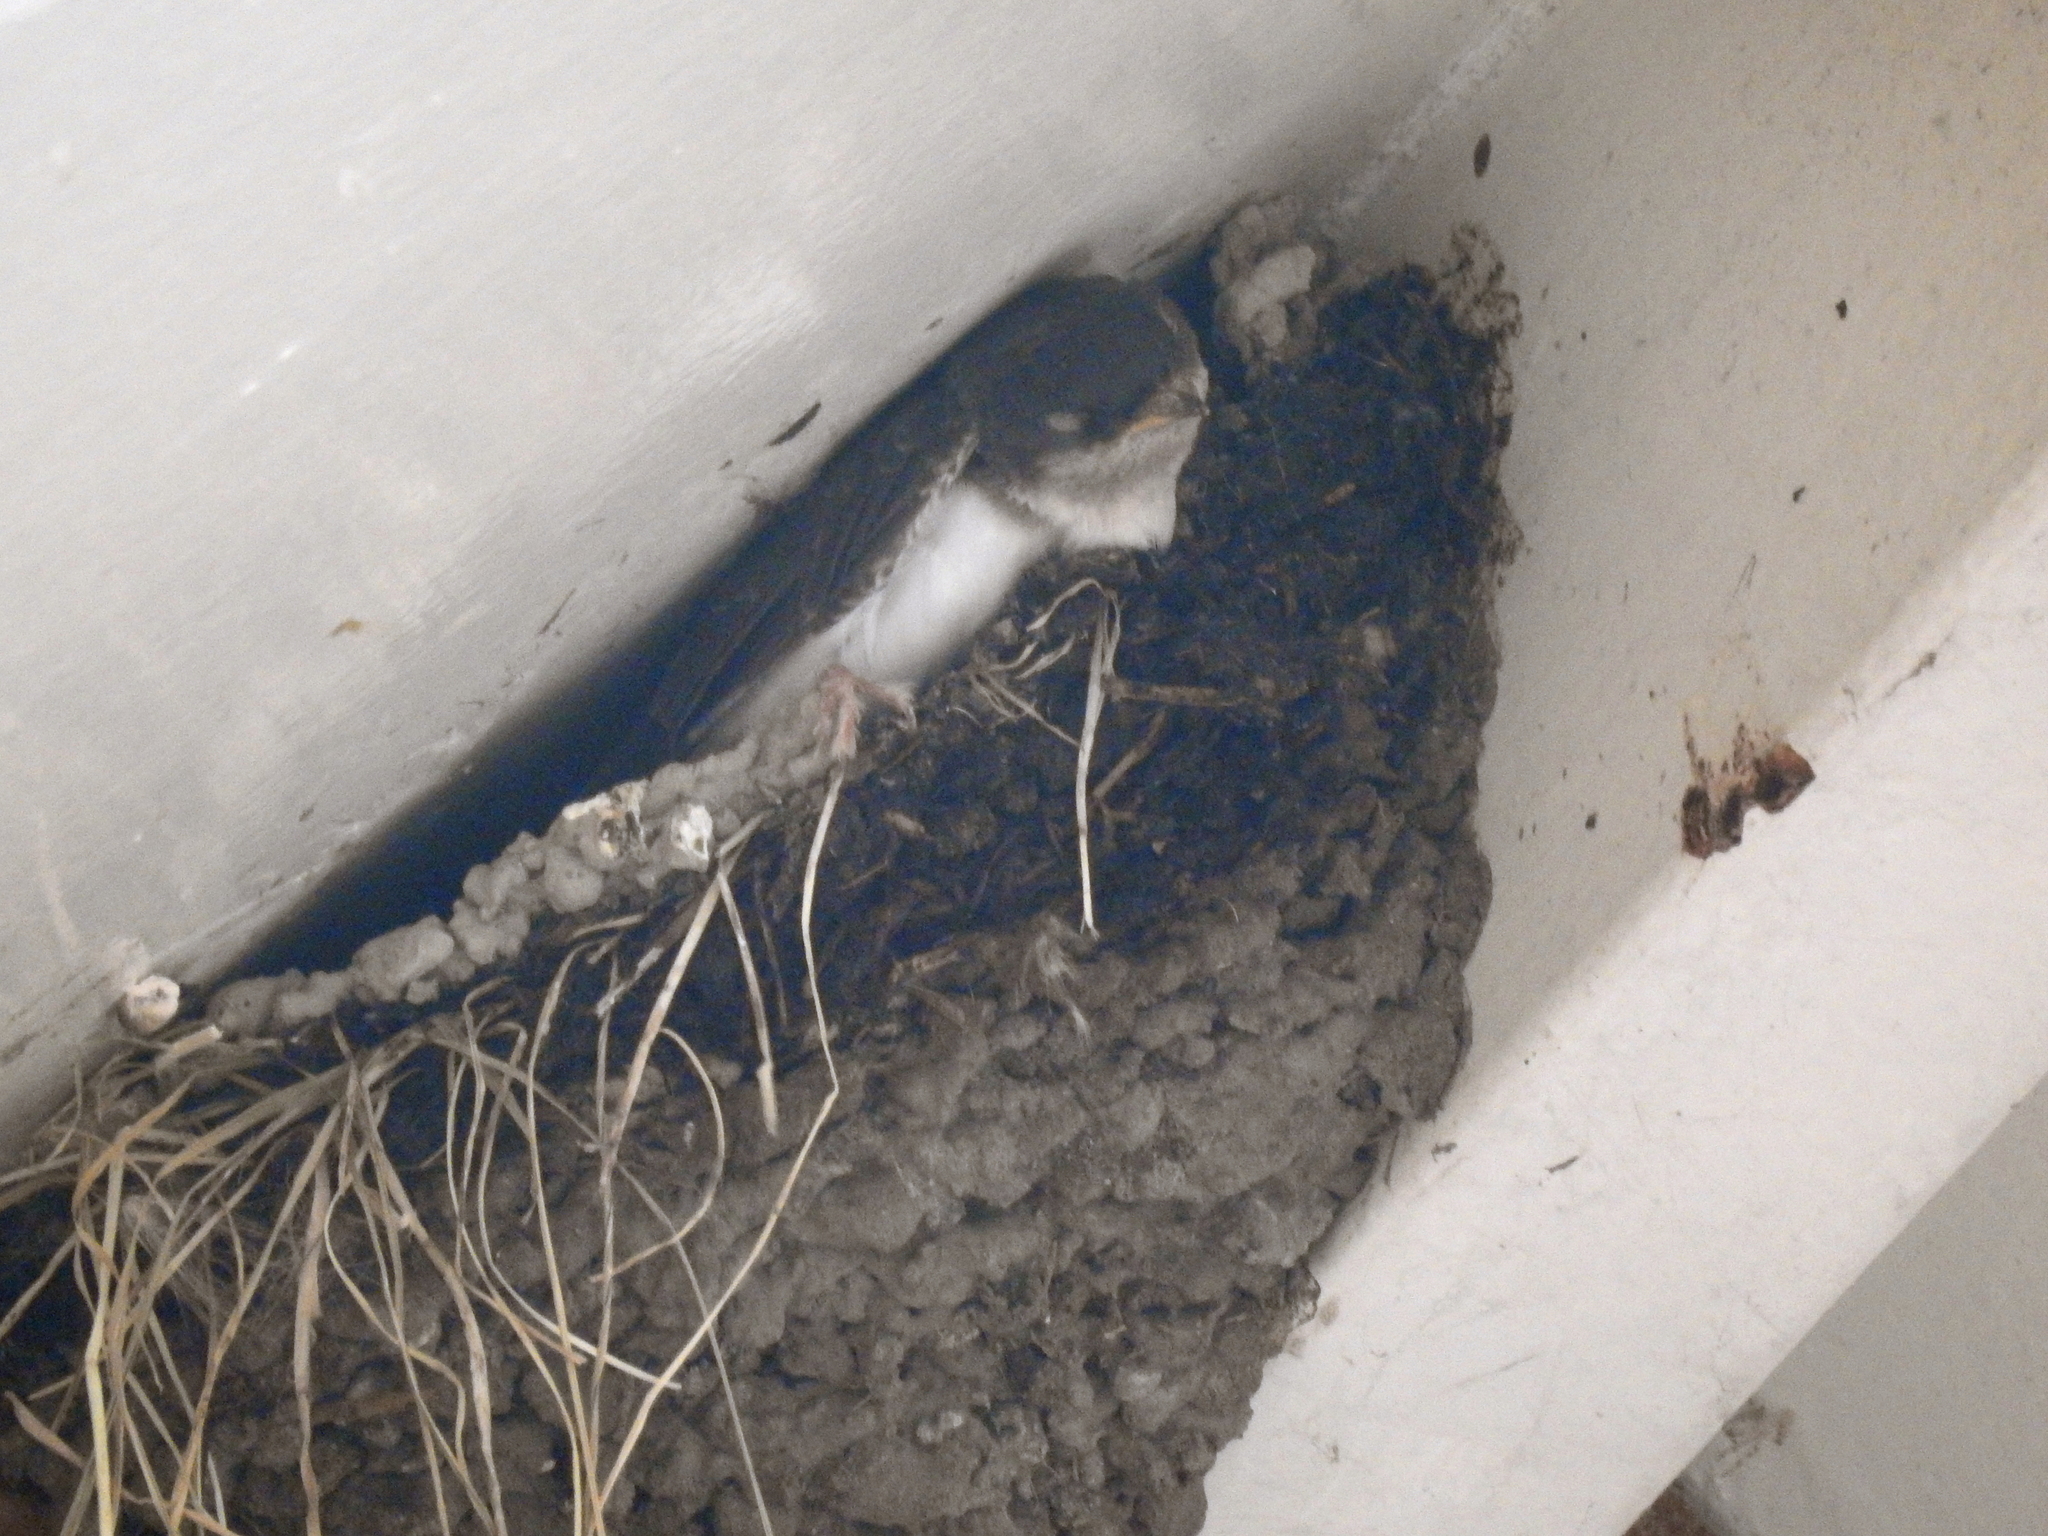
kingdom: Animalia
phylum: Chordata
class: Aves
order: Passeriformes
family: Hirundinidae
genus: Delichon
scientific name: Delichon urbicum
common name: Common house martin
